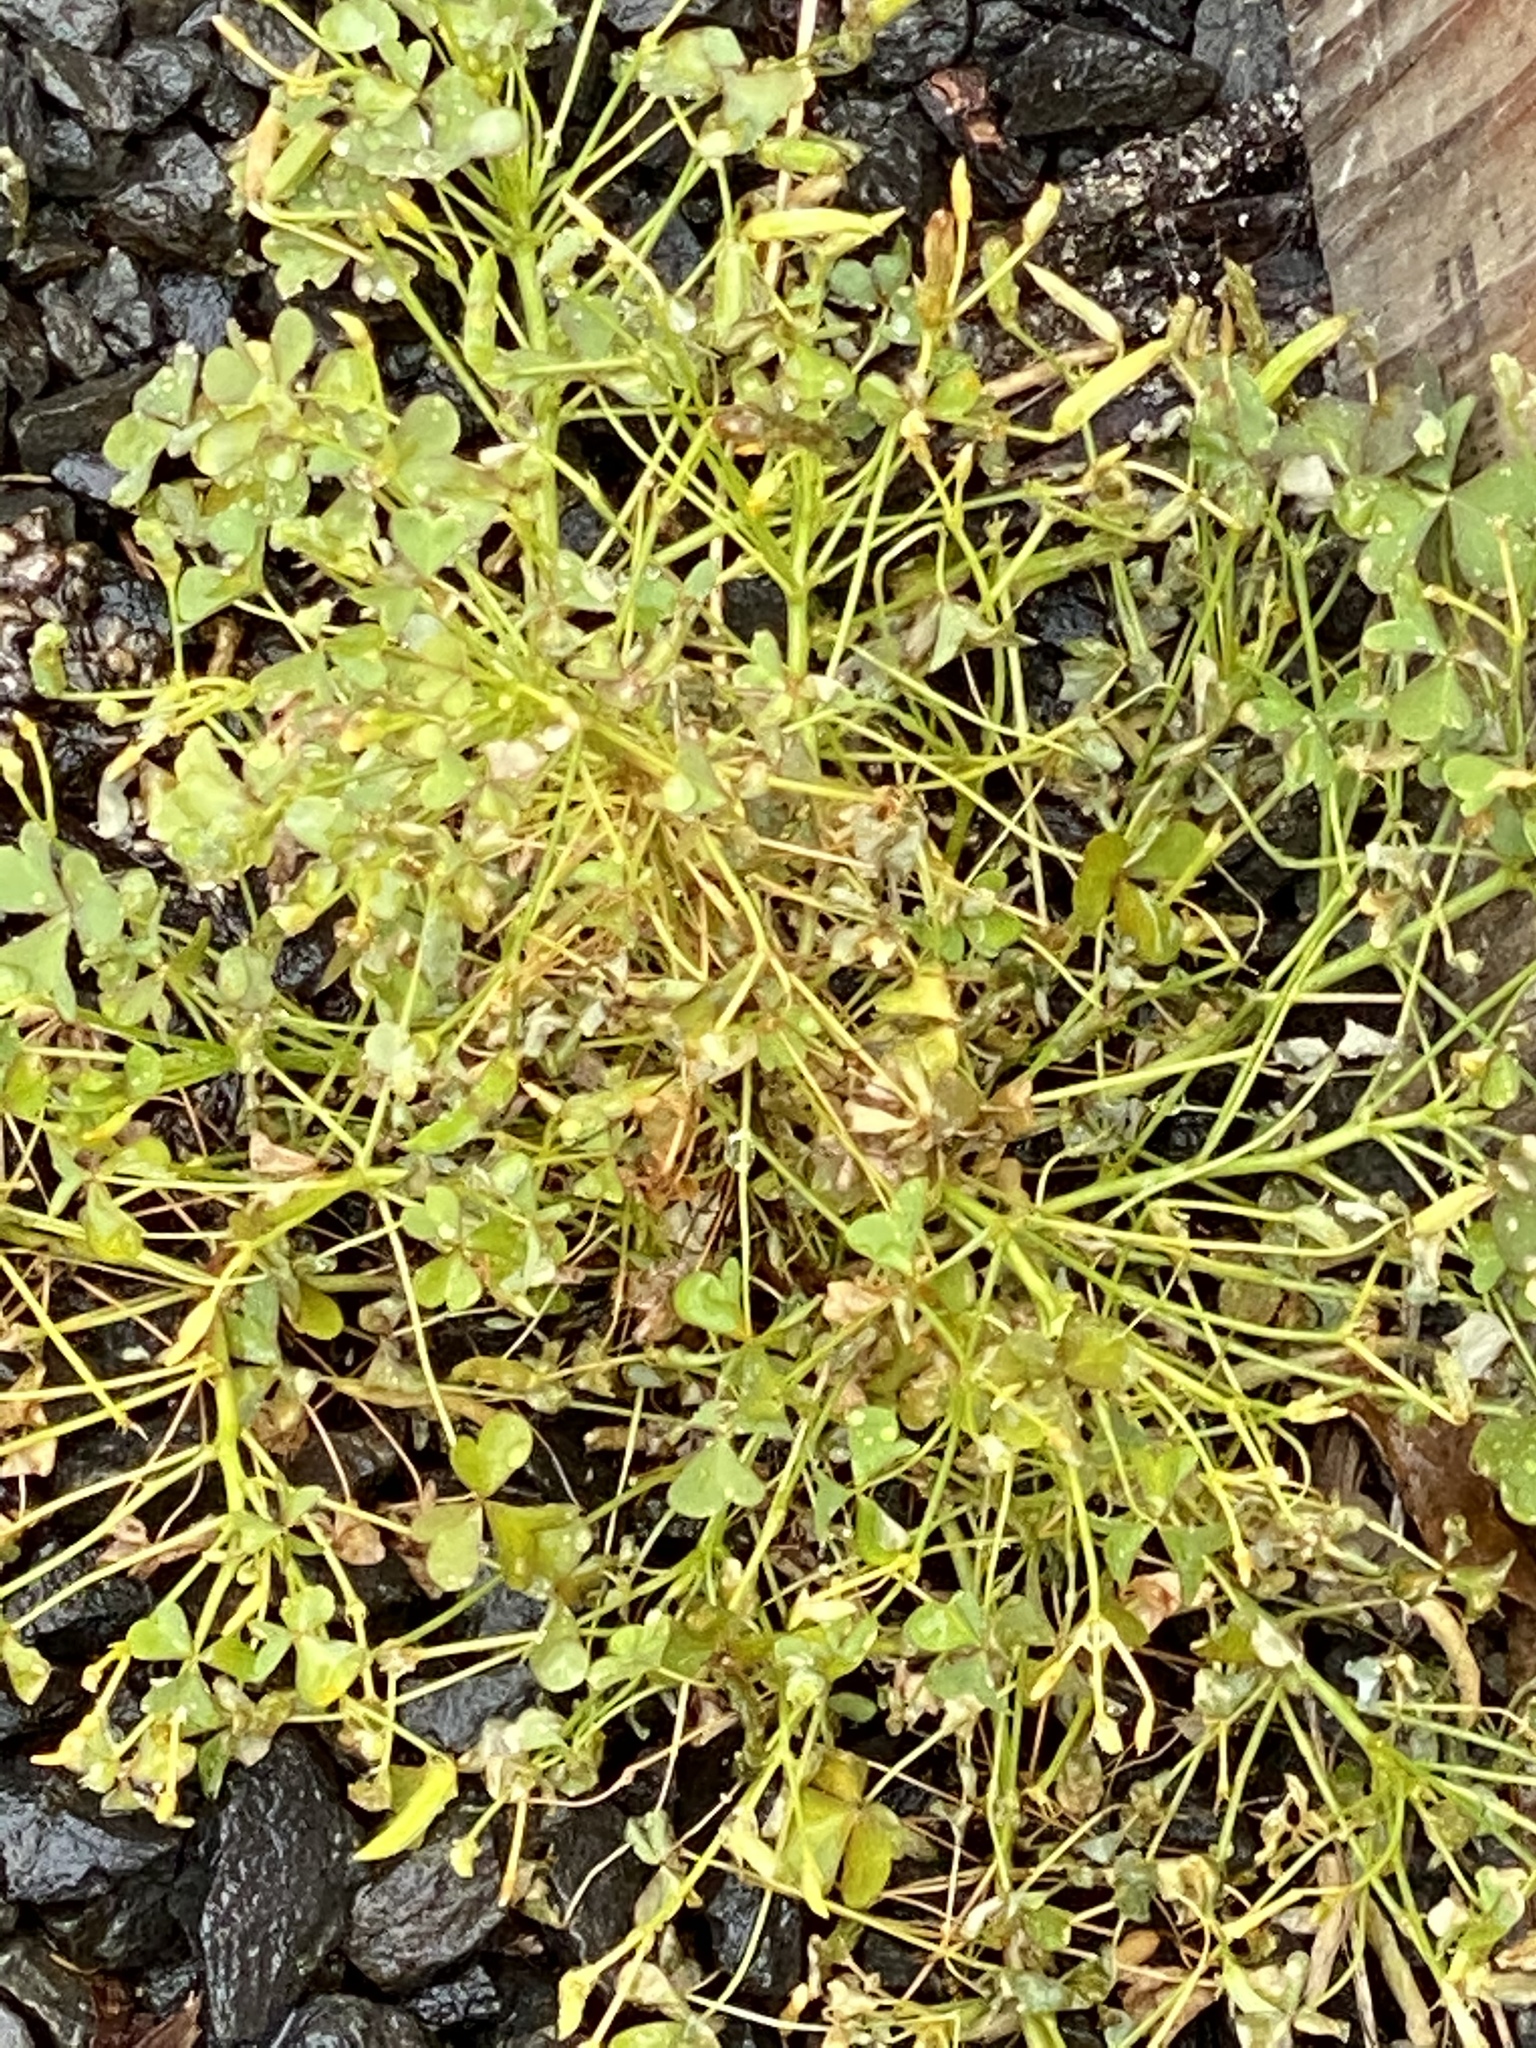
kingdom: Plantae
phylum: Tracheophyta
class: Magnoliopsida
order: Oxalidales
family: Oxalidaceae
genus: Oxalis
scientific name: Oxalis corniculata
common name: Procumbent yellow-sorrel
